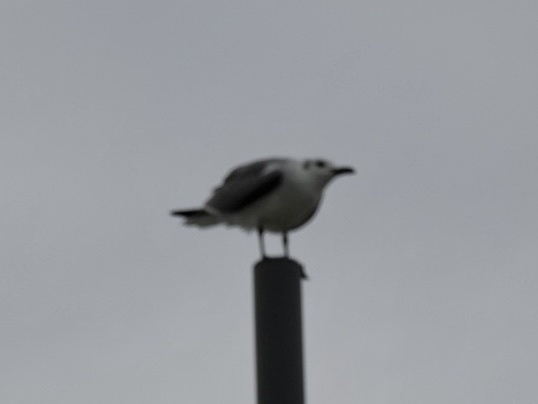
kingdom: Animalia
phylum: Chordata
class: Aves
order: Charadriiformes
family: Laridae
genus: Leucophaeus
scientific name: Leucophaeus atricilla
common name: Laughing gull
